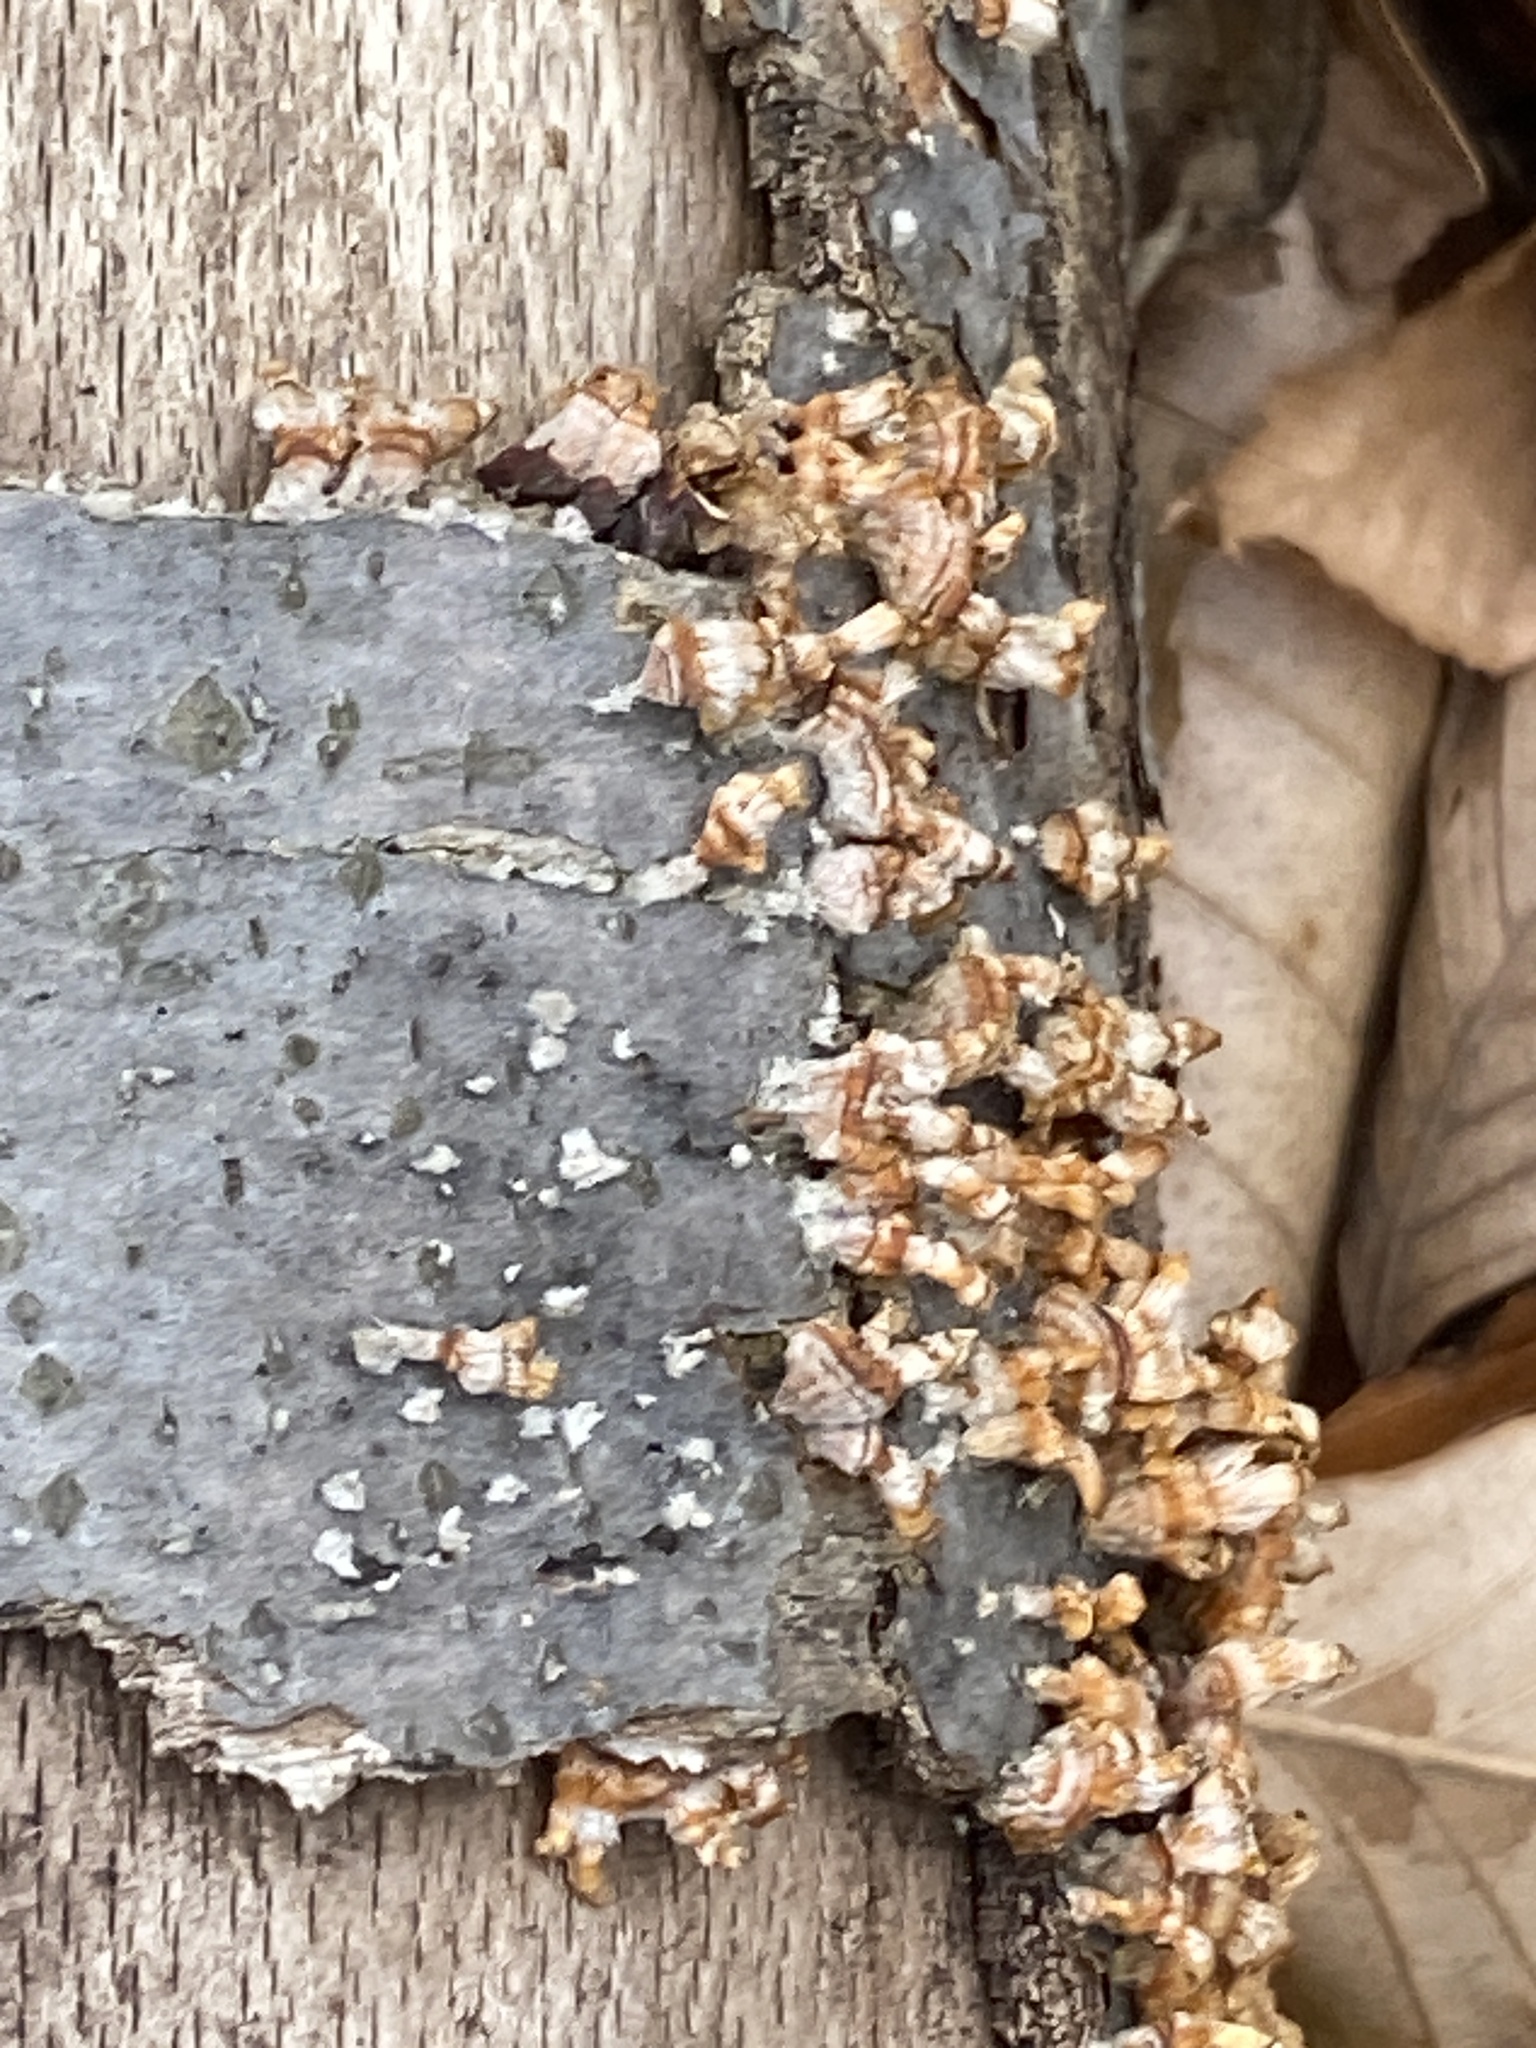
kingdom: Fungi
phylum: Basidiomycota
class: Agaricomycetes
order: Russulales
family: Stereaceae
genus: Stereum
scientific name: Stereum complicatum
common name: Crowded parchment
